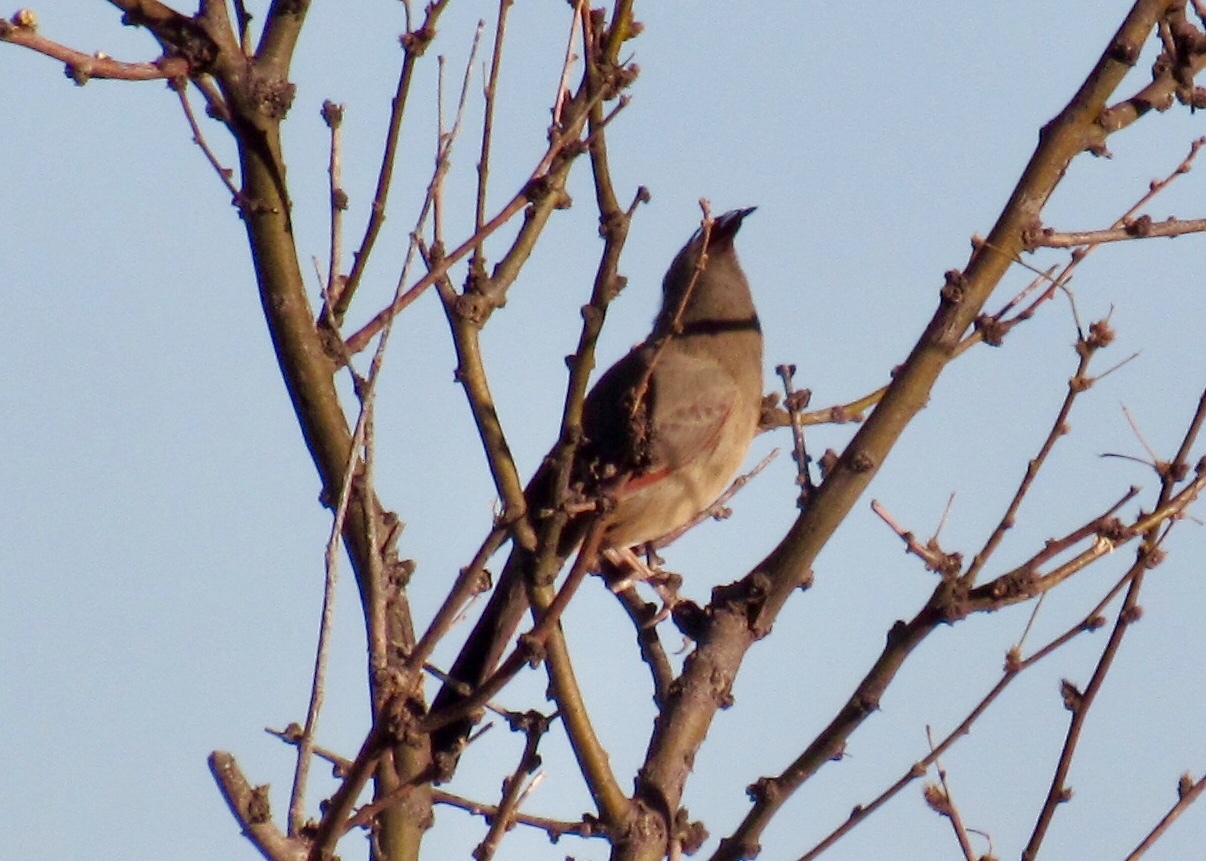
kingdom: Animalia
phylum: Chordata
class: Aves
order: Passeriformes
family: Cardinalidae
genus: Cardinalis
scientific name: Cardinalis sinuatus
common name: Pyrrhuloxia
